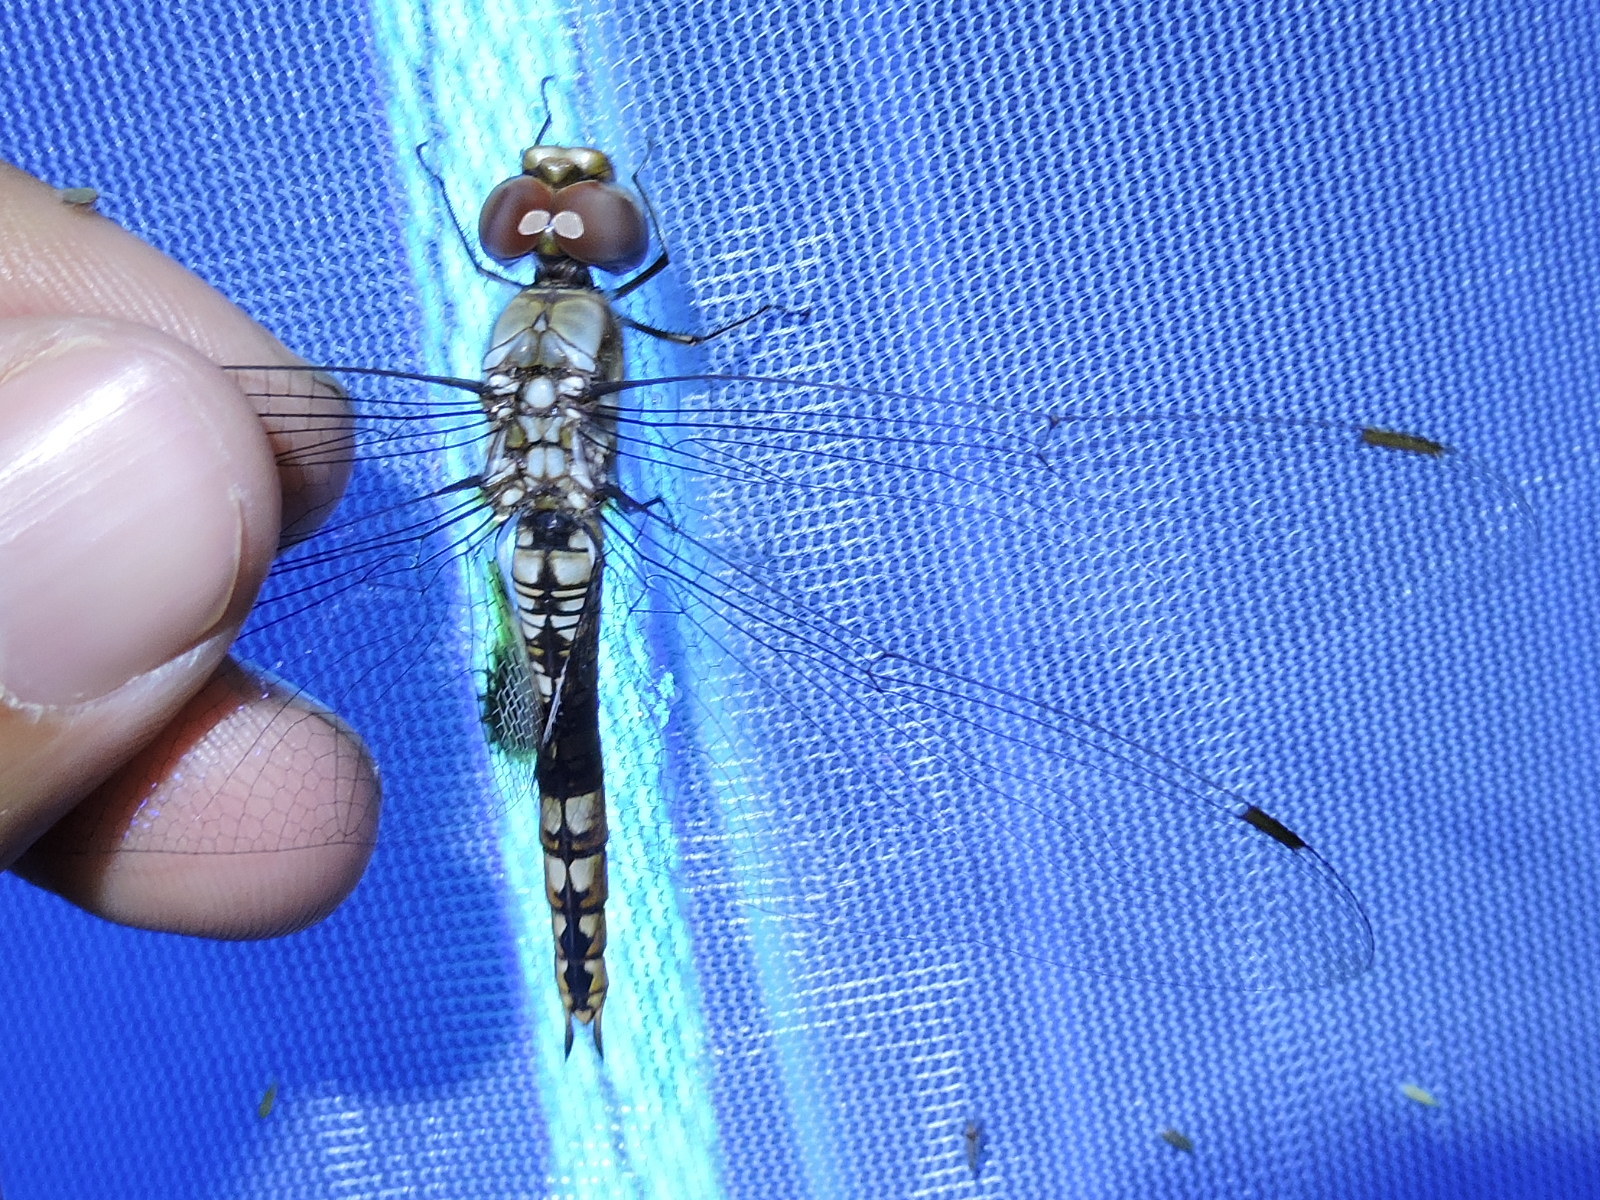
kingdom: Animalia
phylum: Arthropoda
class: Insecta
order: Odonata
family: Libellulidae
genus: Pantala
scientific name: Pantala hymenaea
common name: Spot-winged glider
